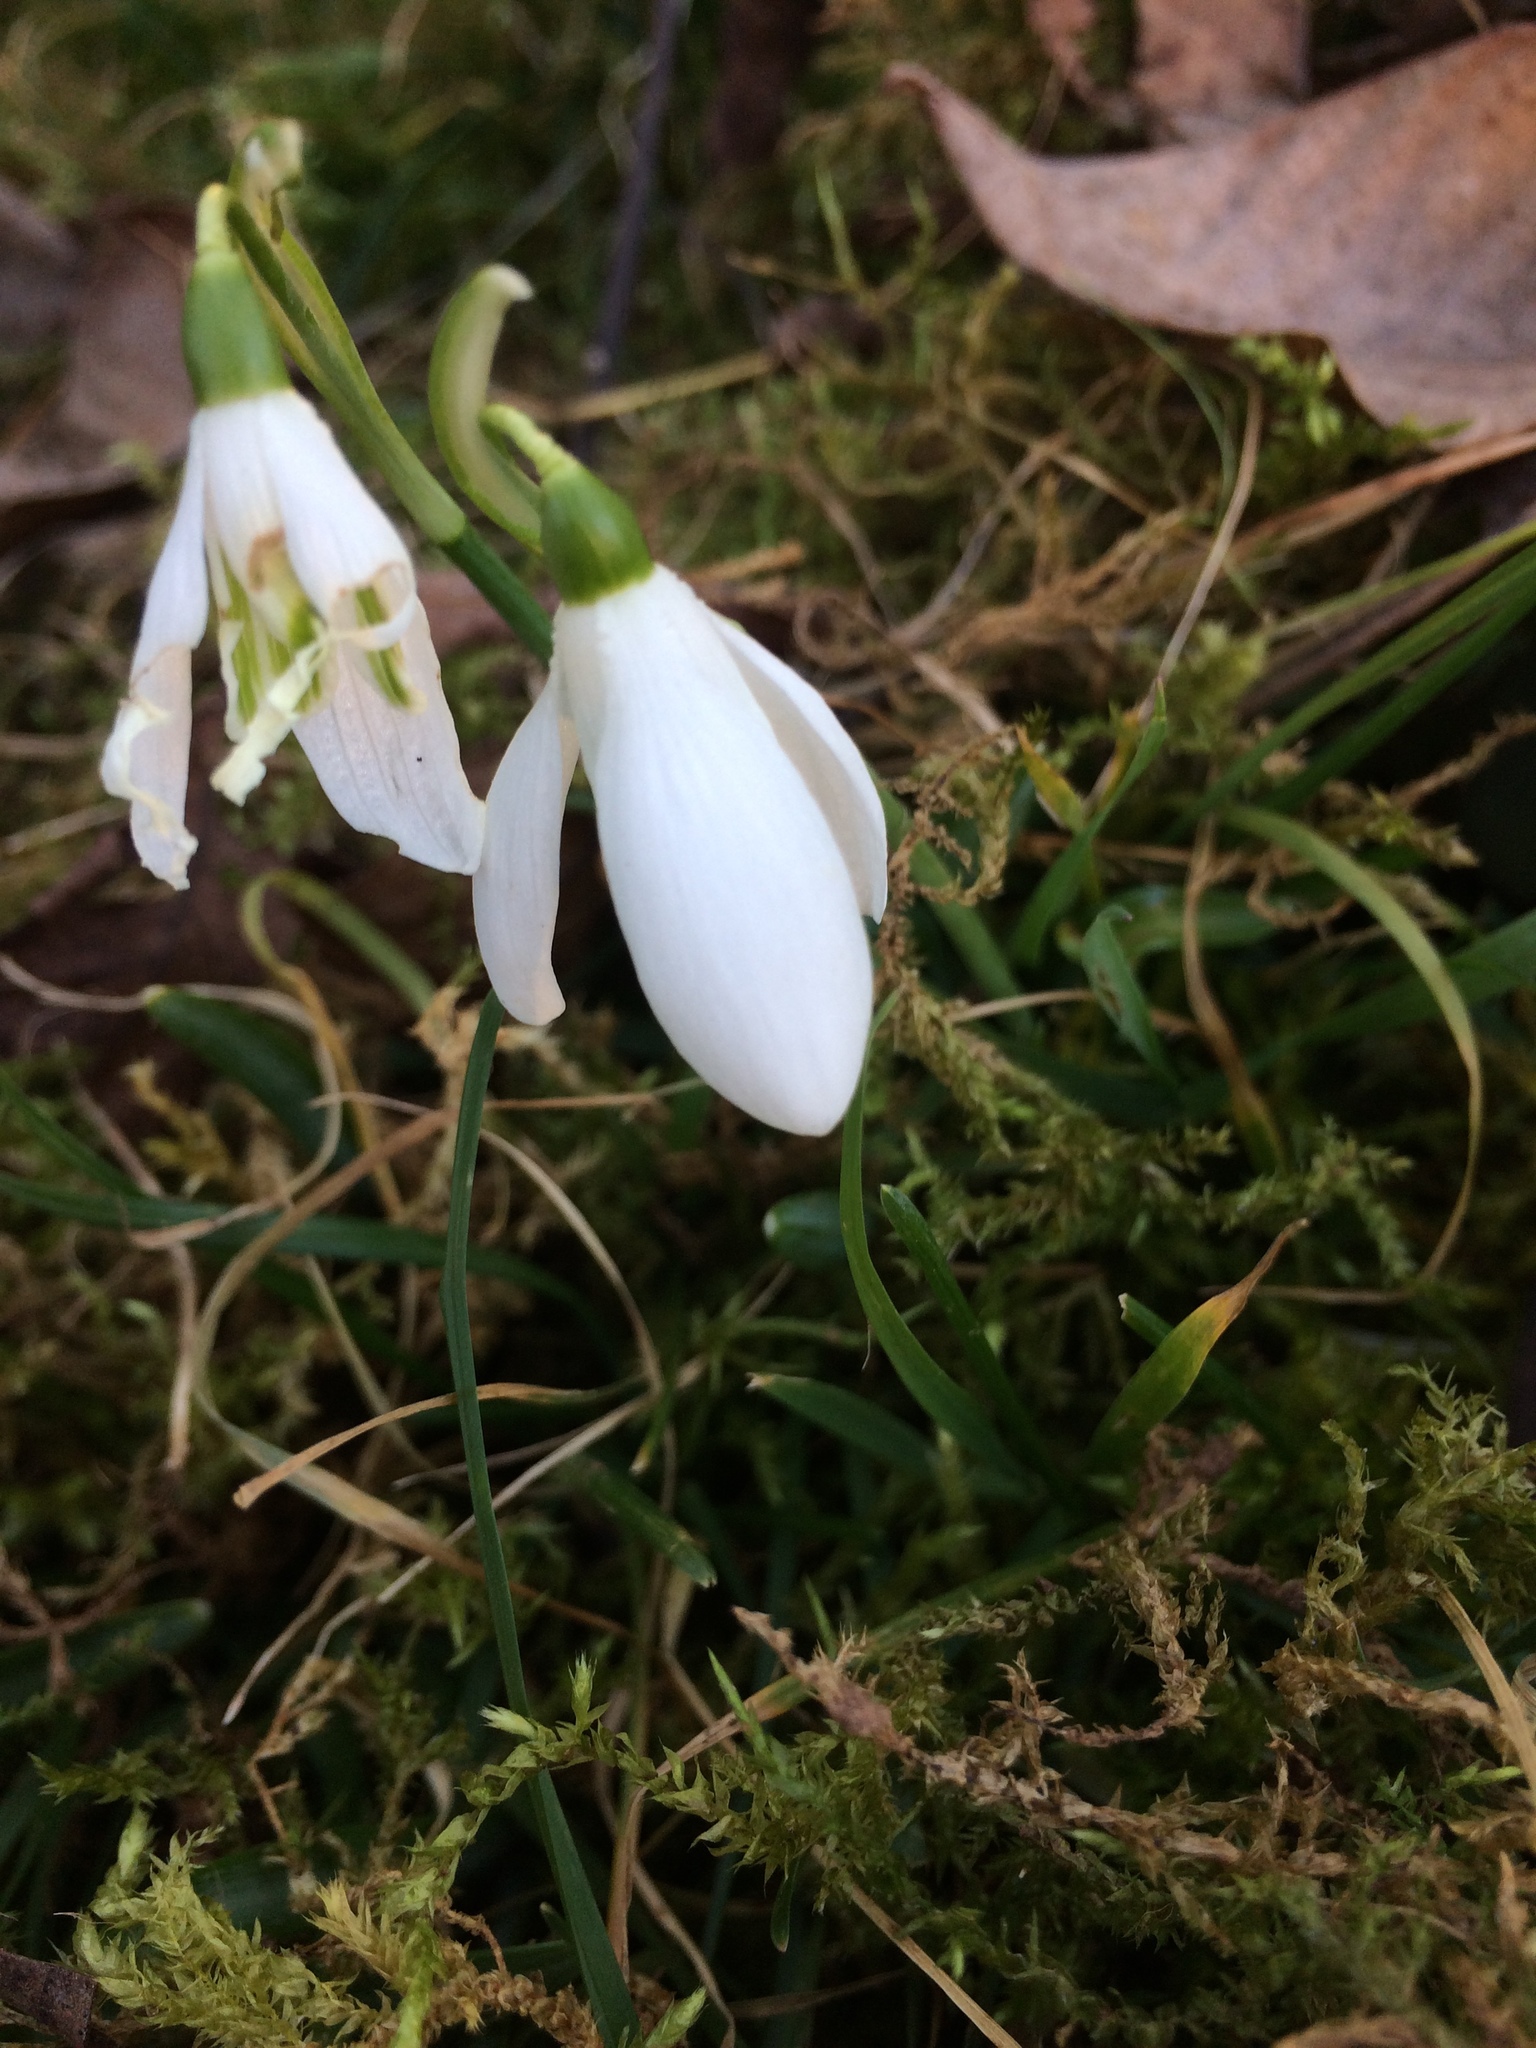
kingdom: Plantae
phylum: Tracheophyta
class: Liliopsida
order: Asparagales
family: Amaryllidaceae
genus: Galanthus
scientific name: Galanthus nivalis
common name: Snowdrop
